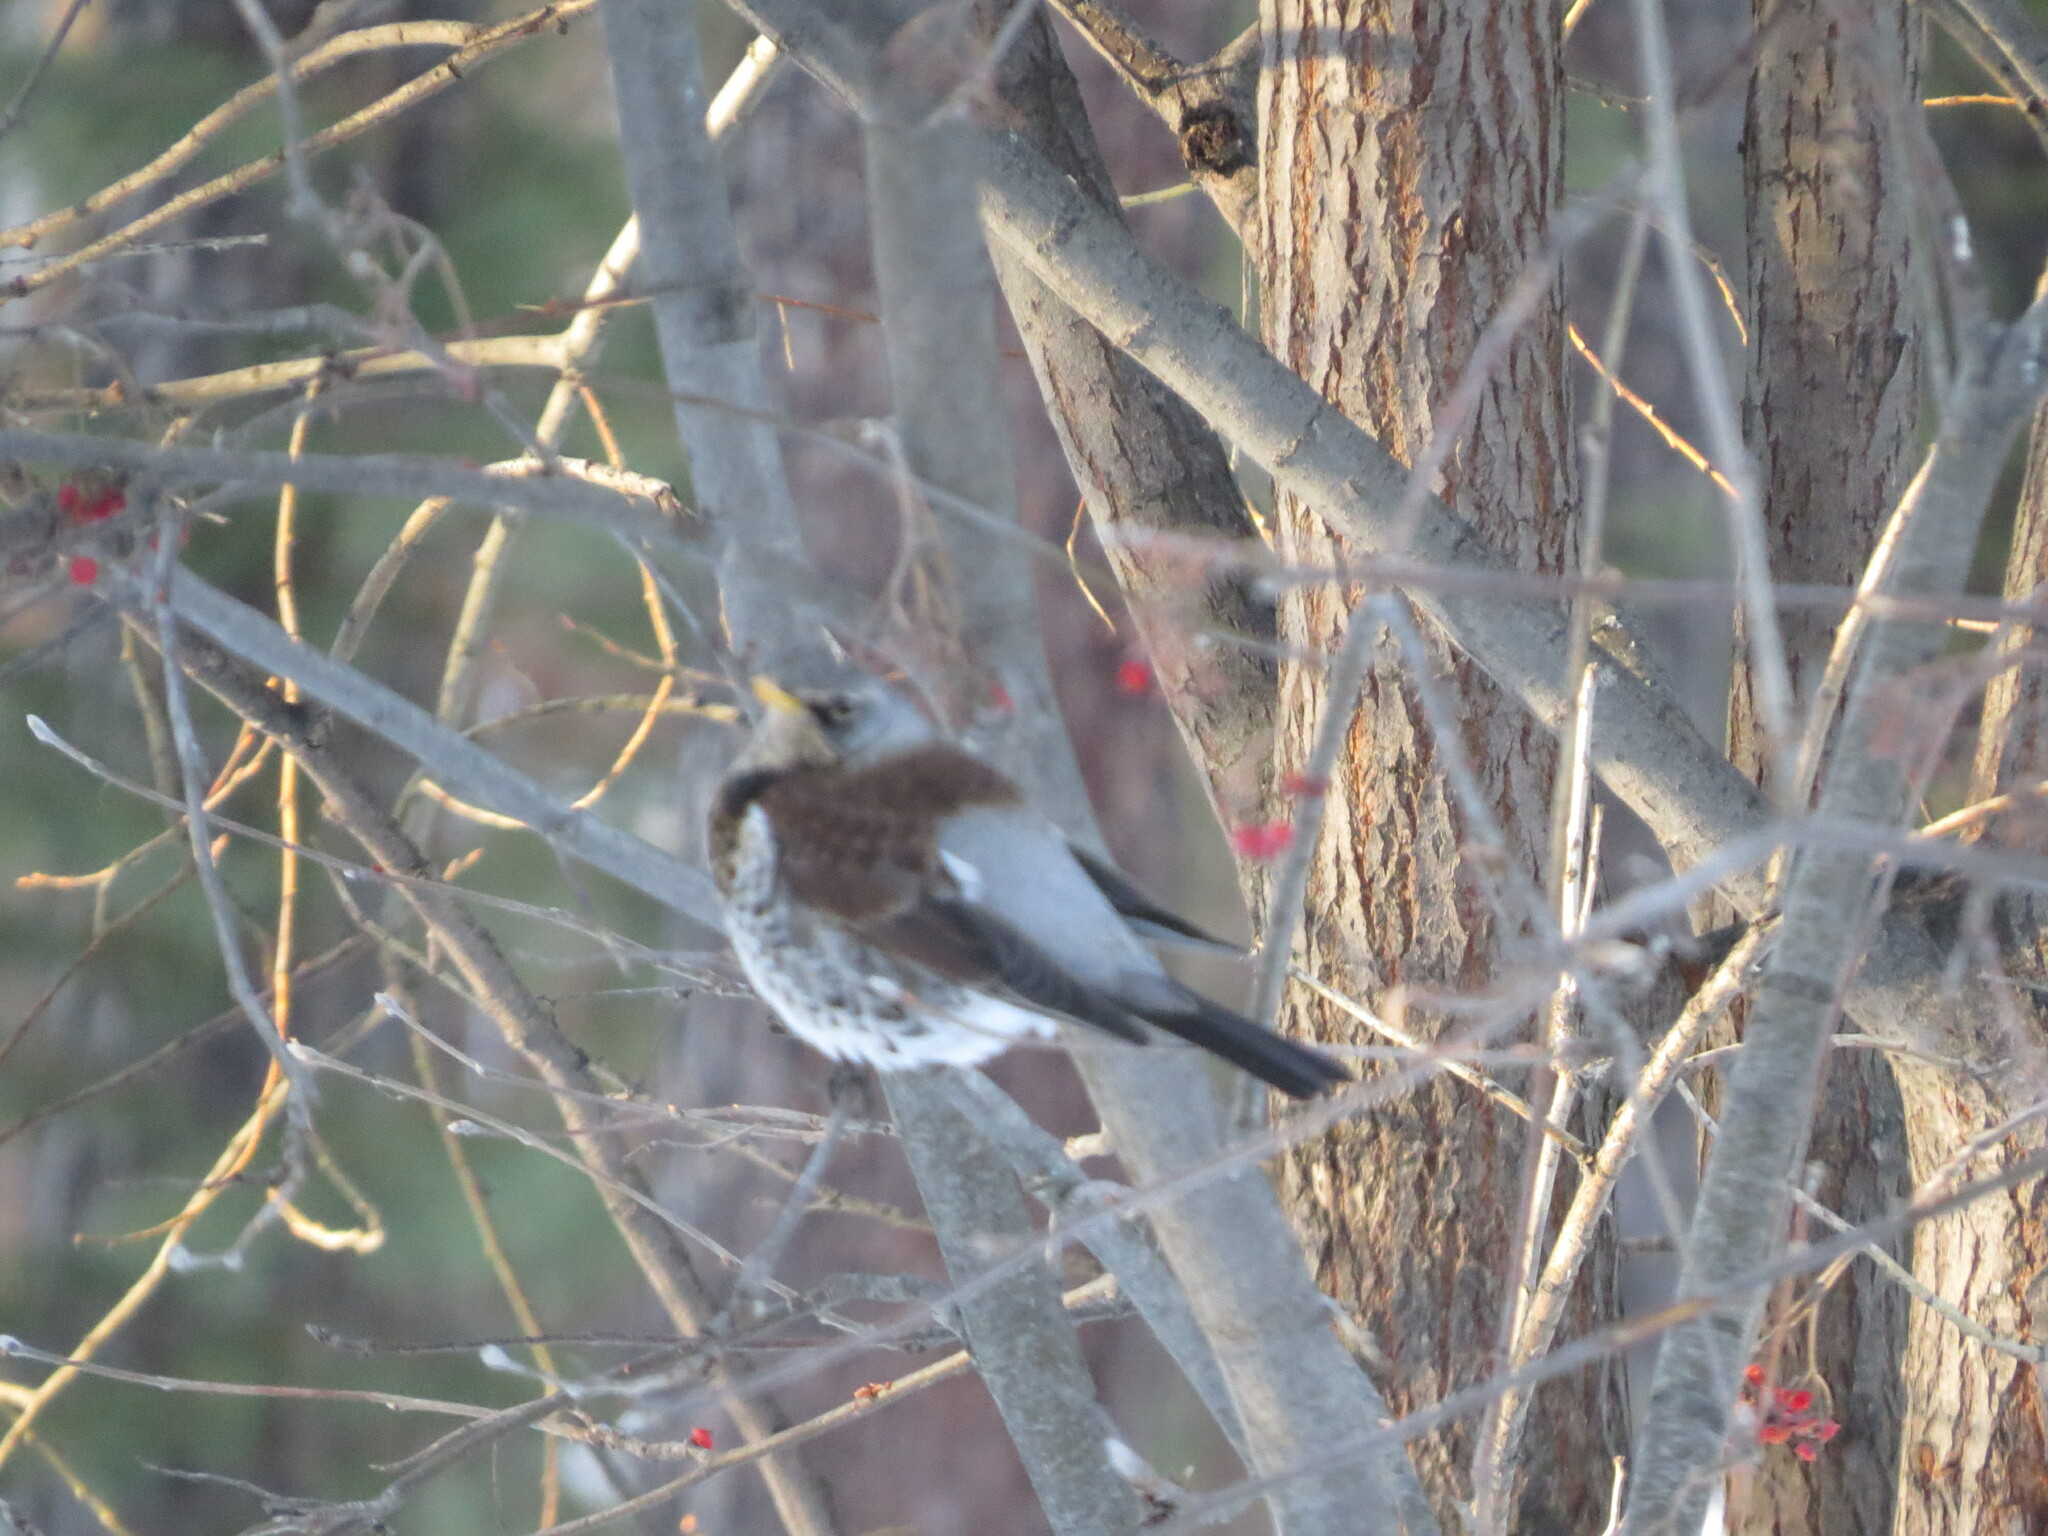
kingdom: Animalia
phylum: Chordata
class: Aves
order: Passeriformes
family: Turdidae
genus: Turdus
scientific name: Turdus pilaris
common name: Fieldfare
